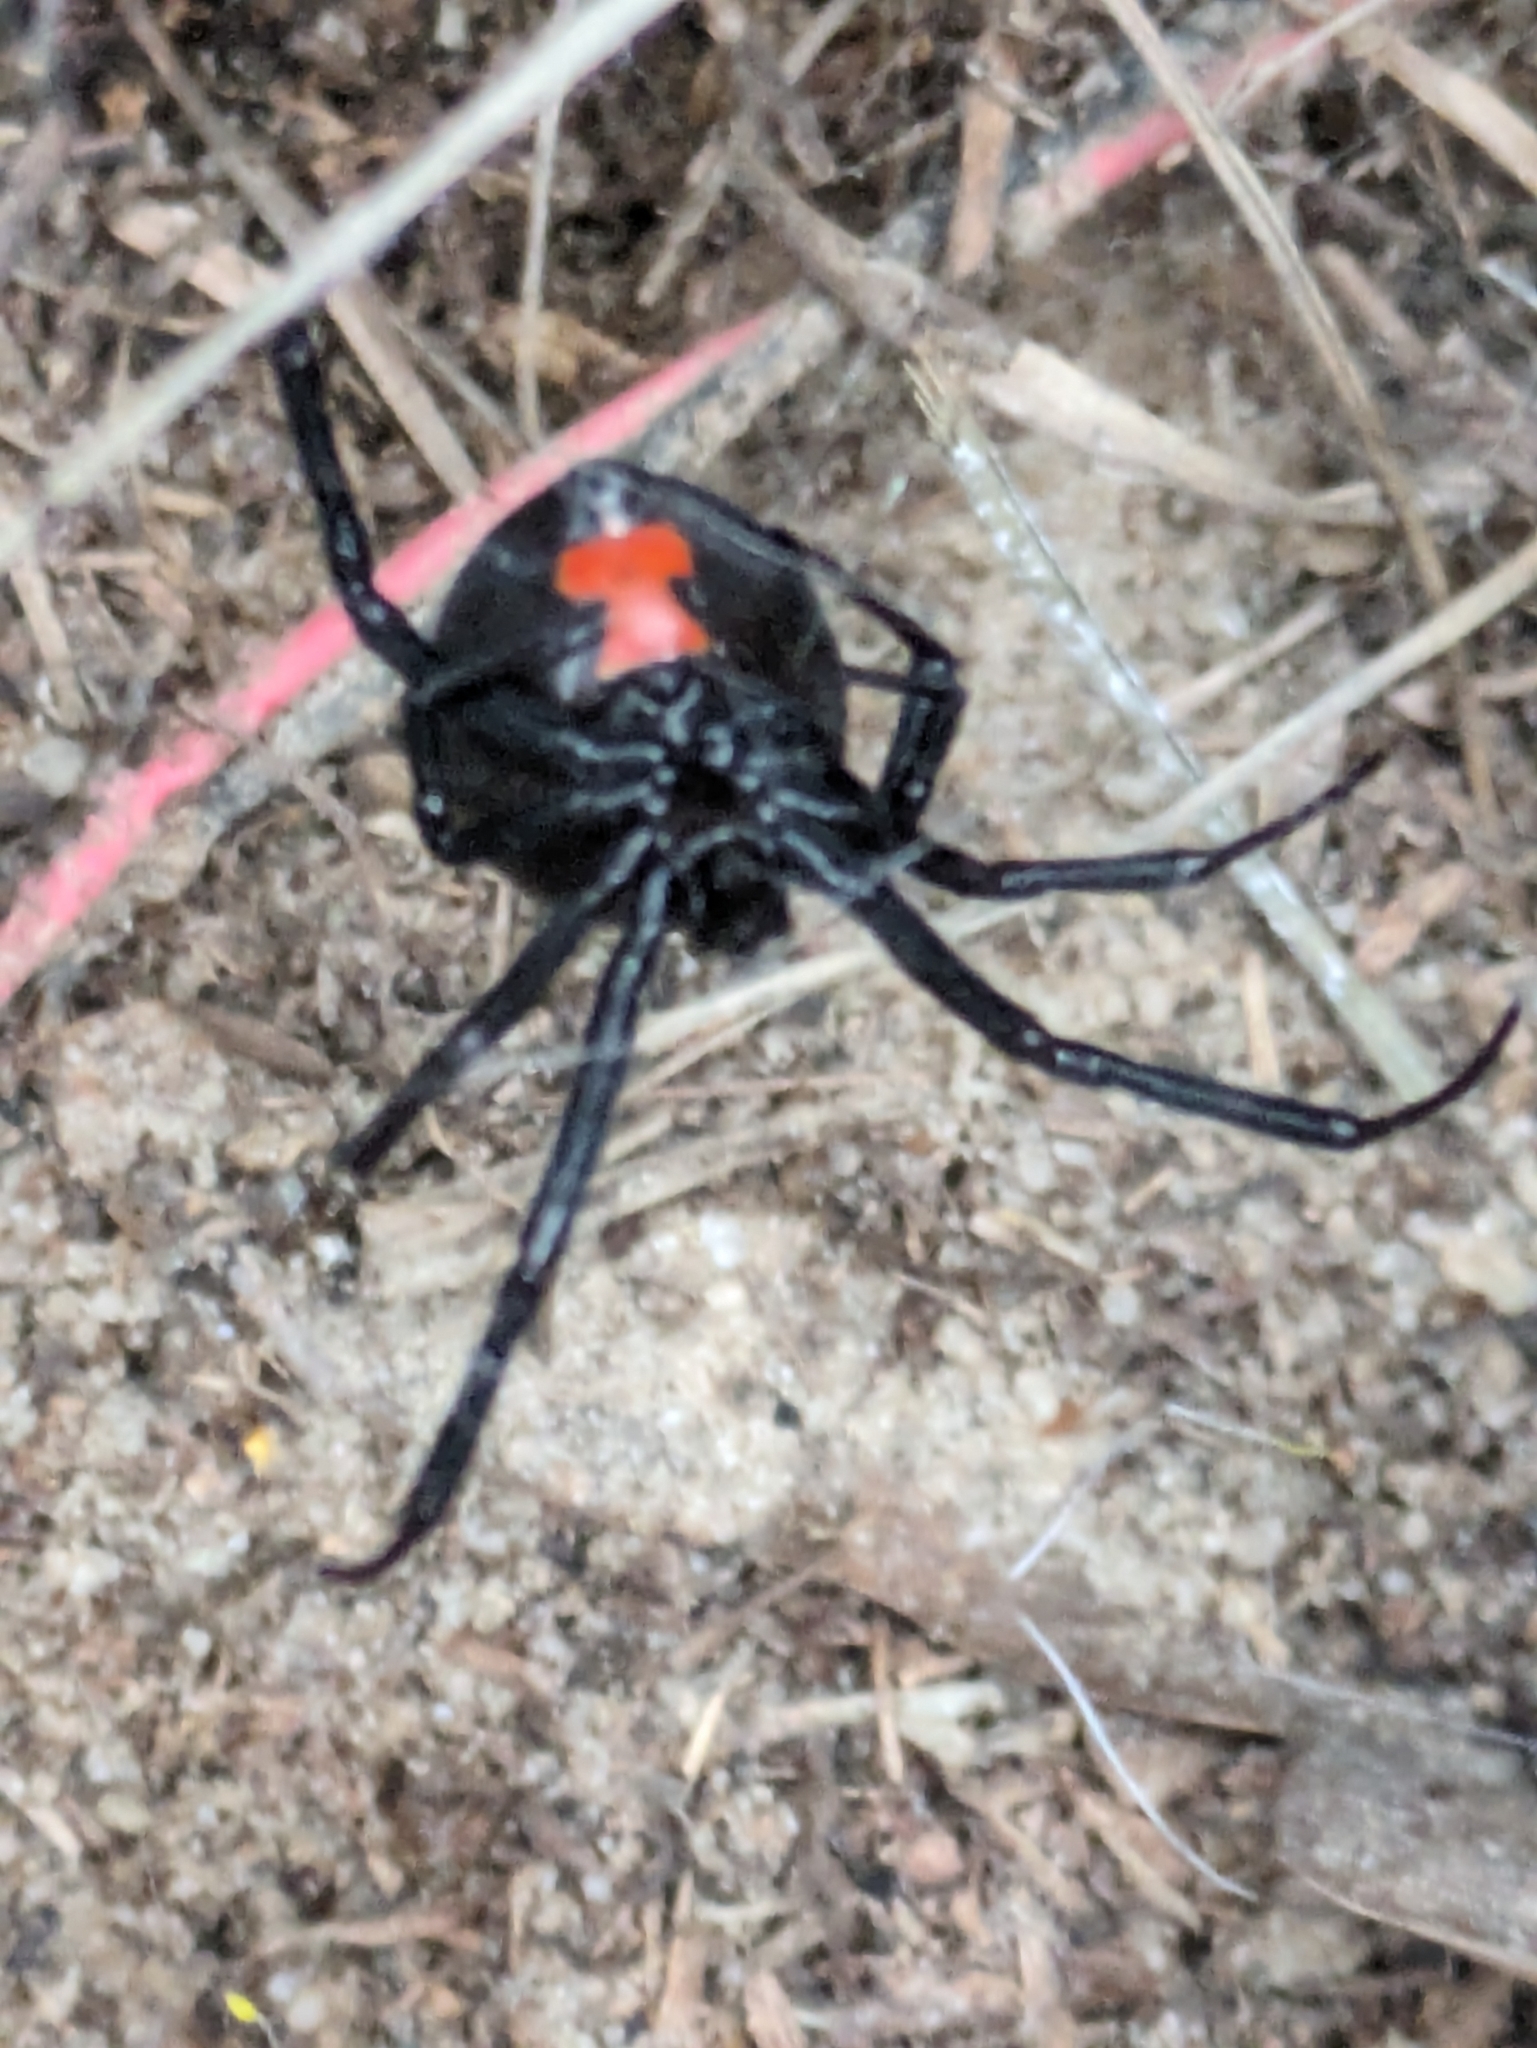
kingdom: Animalia
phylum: Arthropoda
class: Arachnida
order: Araneae
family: Theridiidae
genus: Latrodectus
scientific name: Latrodectus mactans
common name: Cobweb spiders
